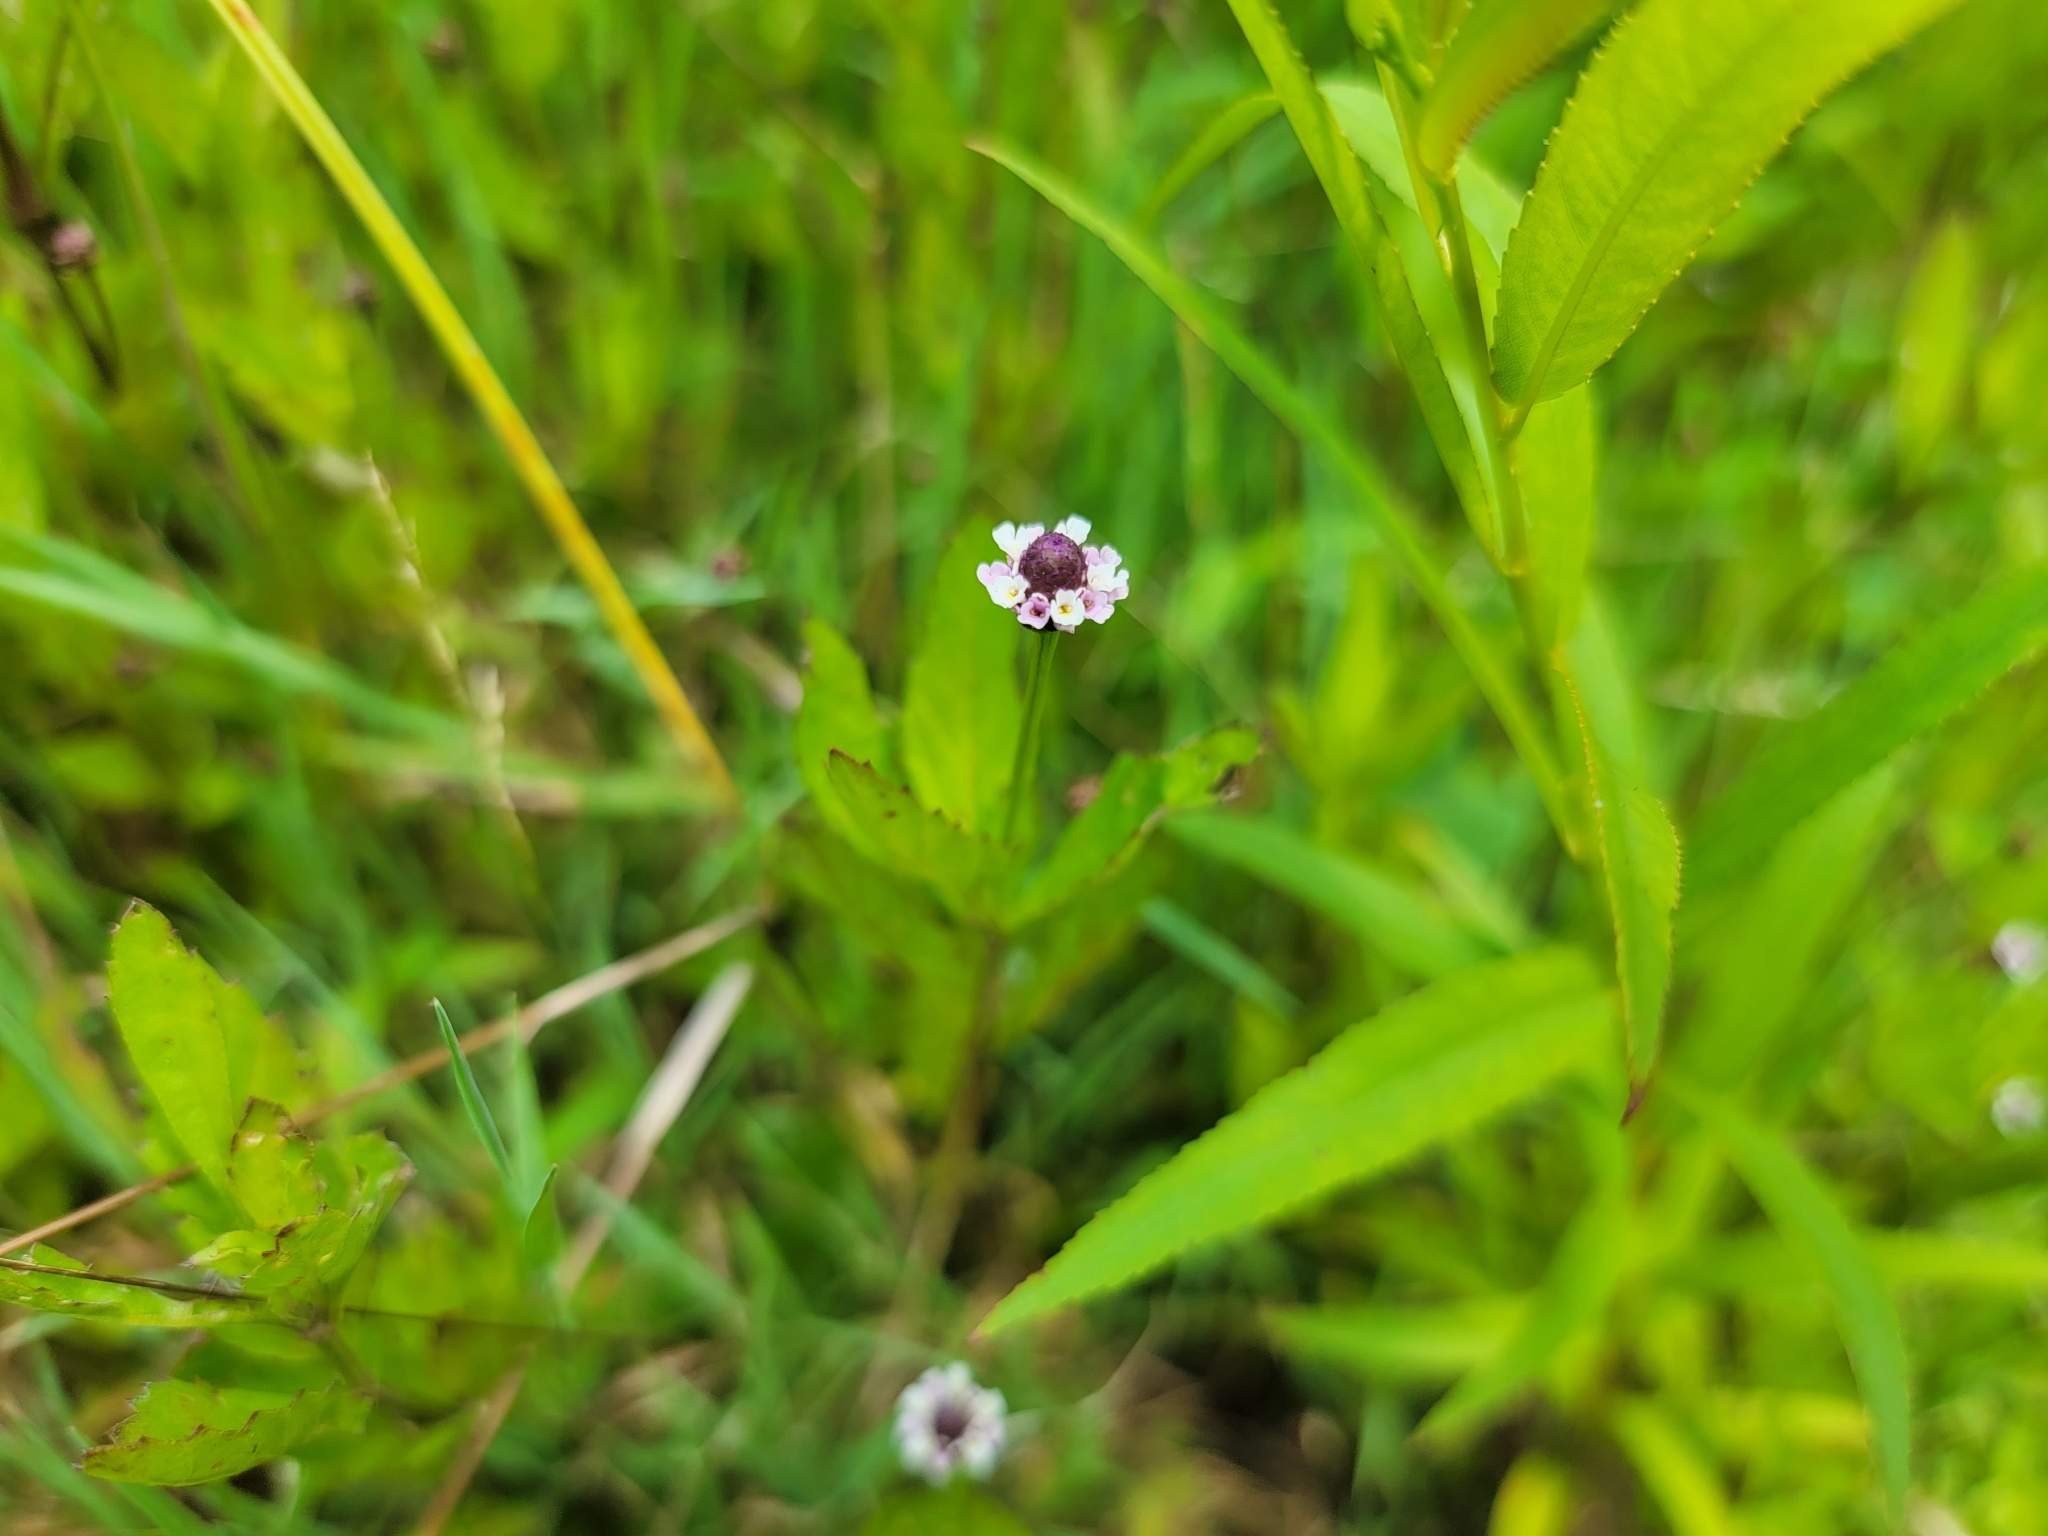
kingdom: Plantae
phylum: Tracheophyta
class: Magnoliopsida
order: Lamiales
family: Verbenaceae
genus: Phyla
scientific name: Phyla lanceolata
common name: Northern fogfruit
